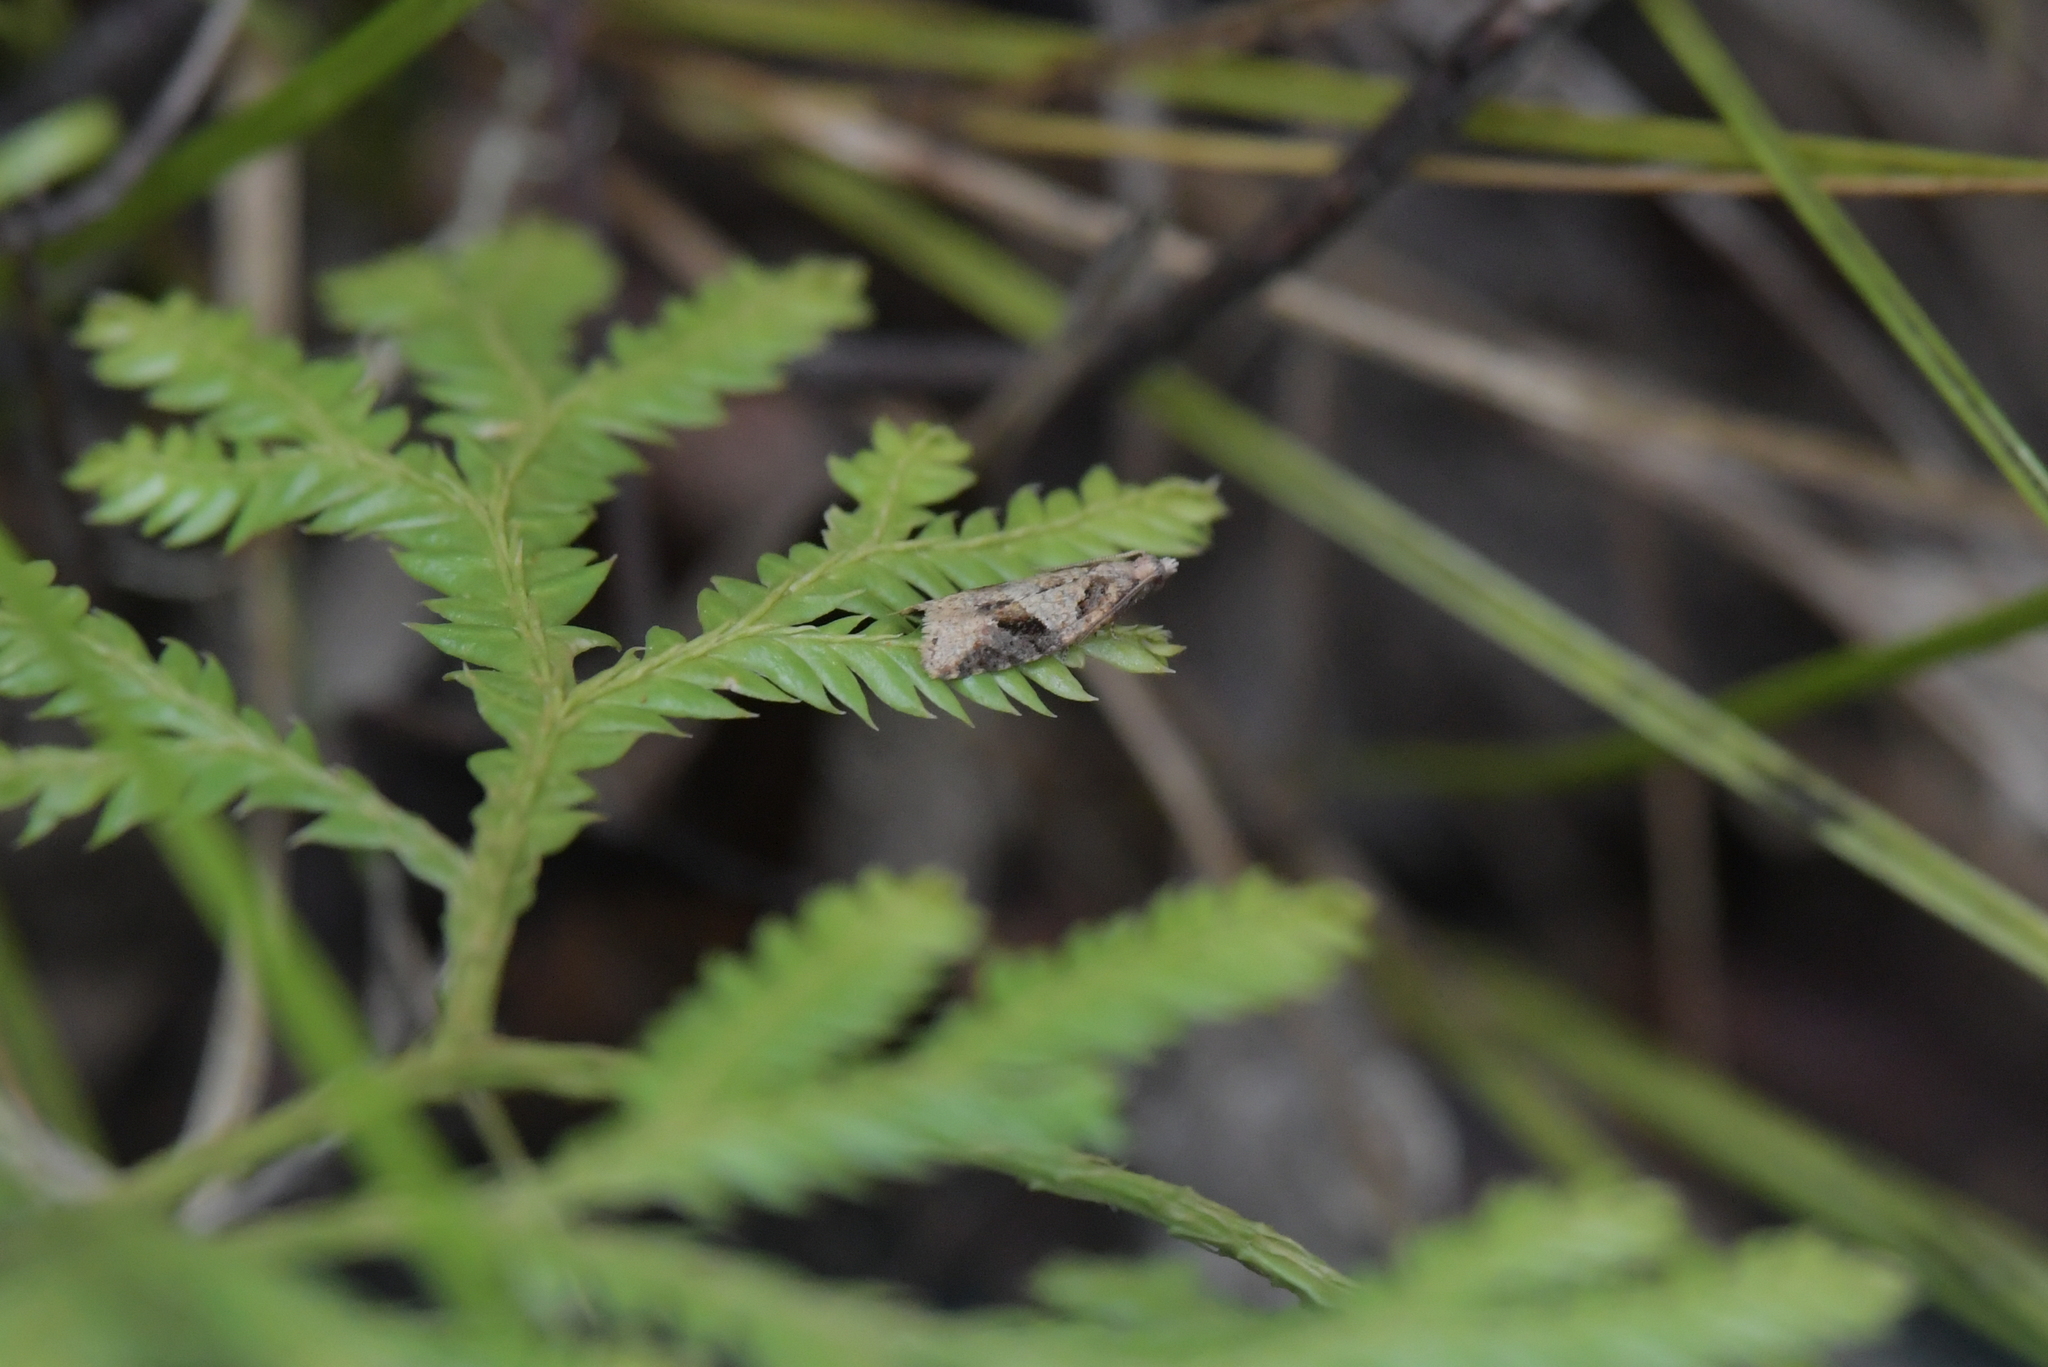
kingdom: Animalia
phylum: Arthropoda
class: Insecta
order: Lepidoptera
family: Tortricidae
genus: Capua
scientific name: Capua semiferana
